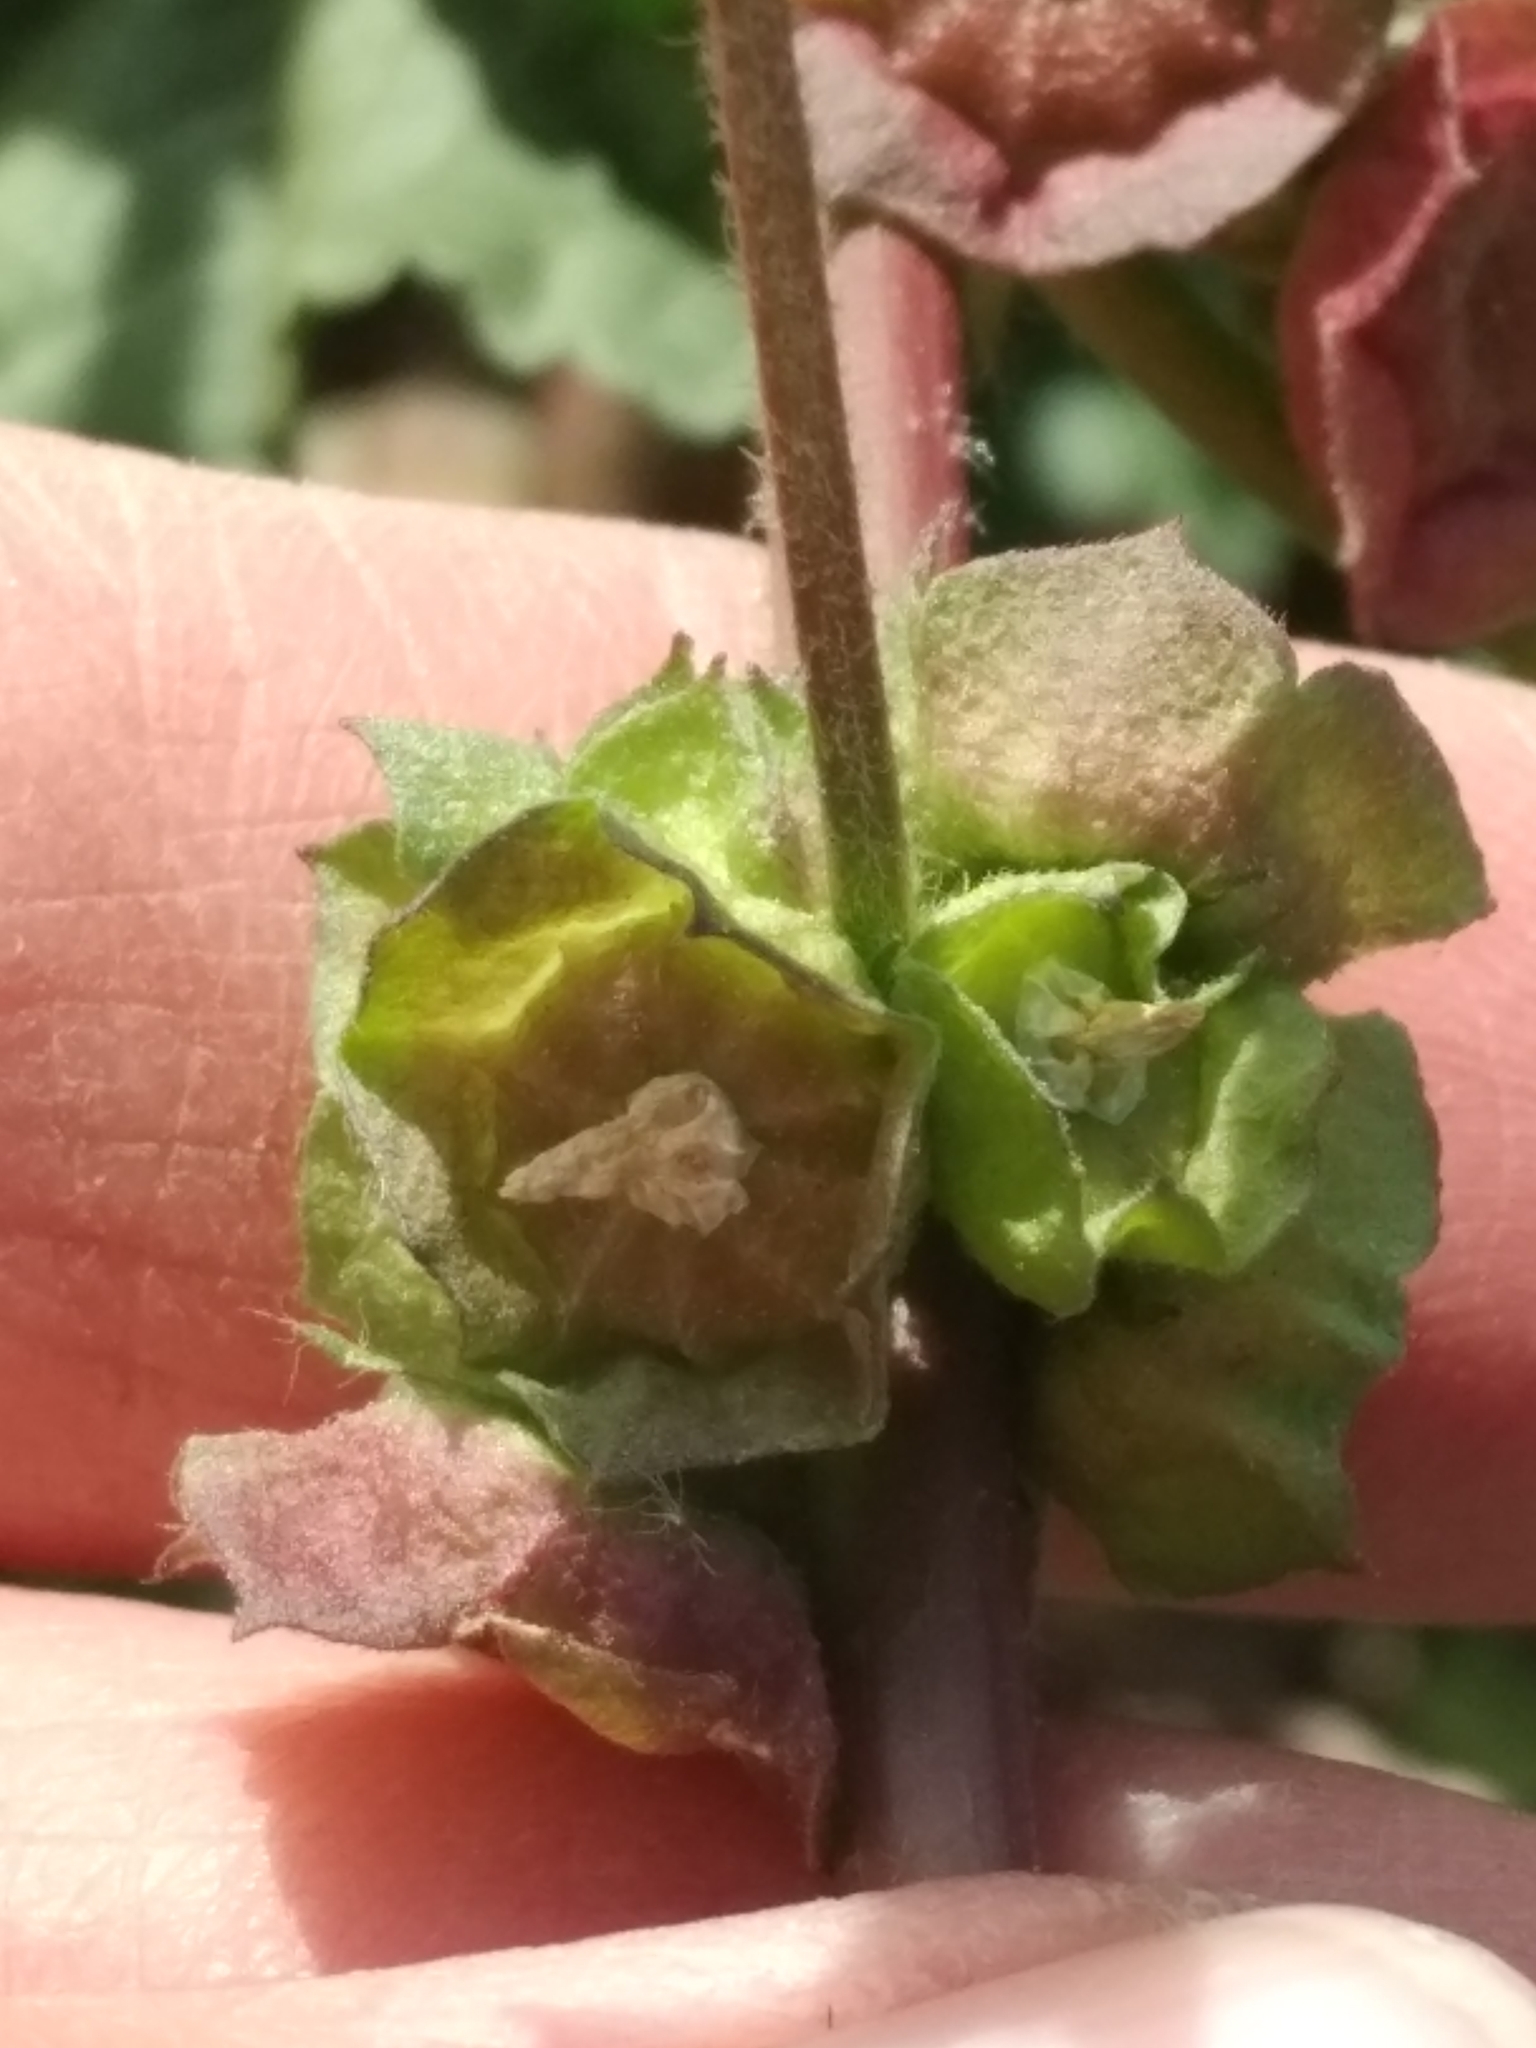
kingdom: Plantae
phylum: Tracheophyta
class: Magnoliopsida
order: Malvales
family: Malvaceae
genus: Malva
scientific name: Malva parviflora
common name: Least mallow
